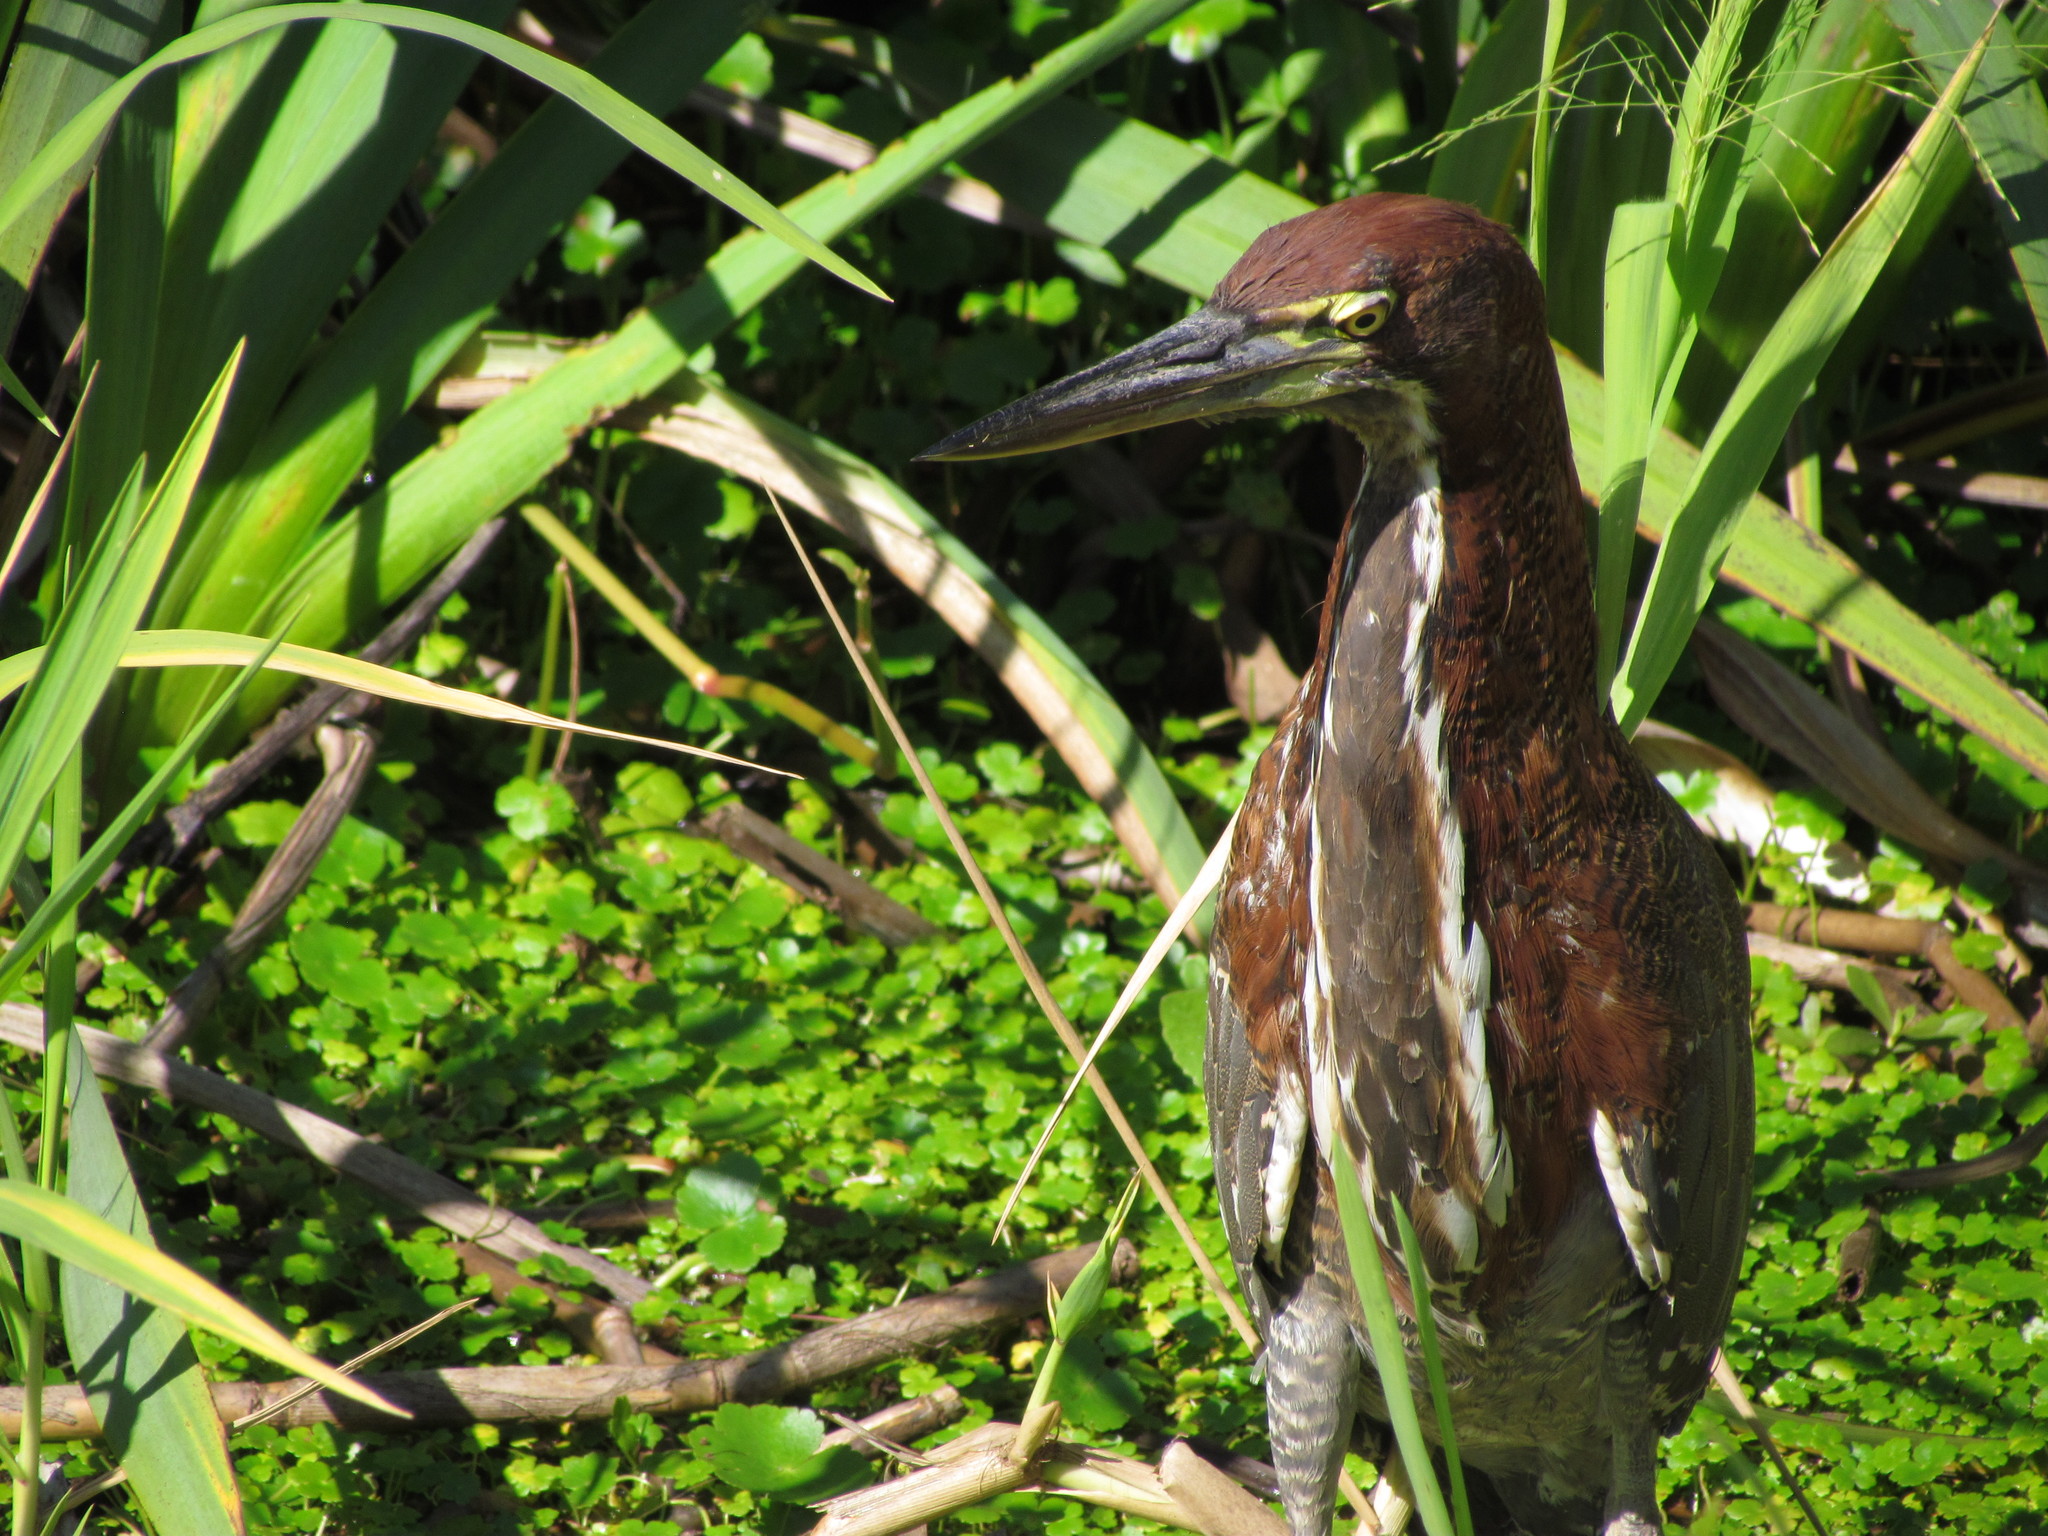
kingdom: Animalia
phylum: Chordata
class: Aves
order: Pelecaniformes
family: Ardeidae
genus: Tigrisoma
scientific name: Tigrisoma lineatum
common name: Rufescent tiger-heron
